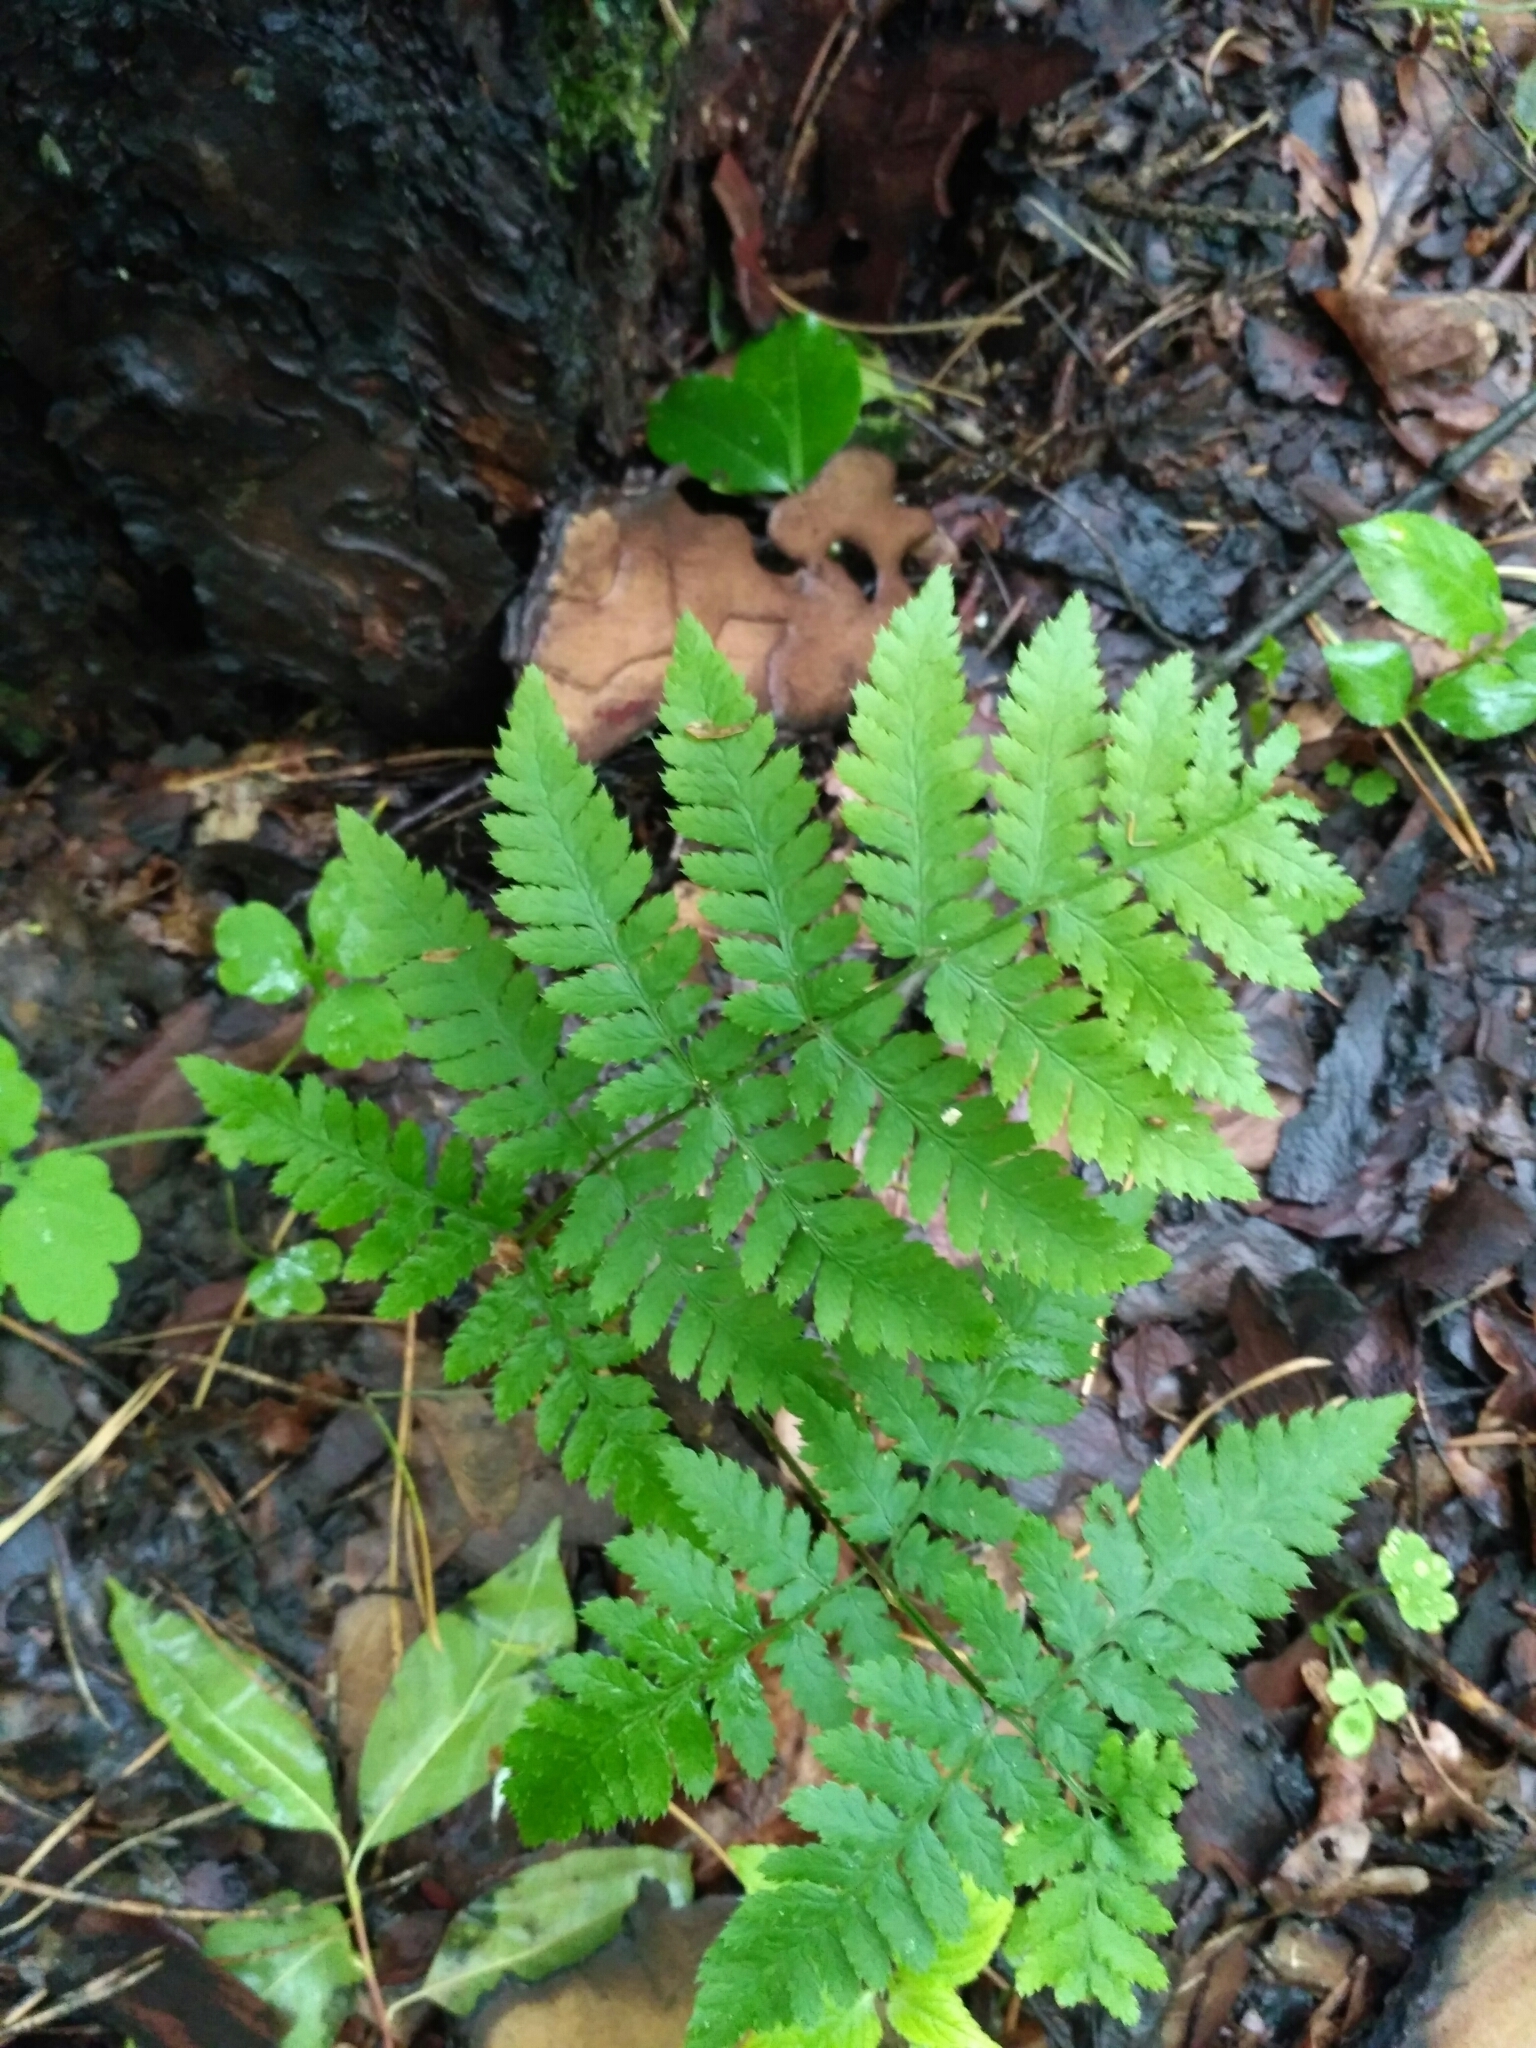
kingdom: Plantae
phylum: Tracheophyta
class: Polypodiopsida
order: Polypodiales
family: Dryopteridaceae
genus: Dryopteris
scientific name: Dryopteris carthusiana
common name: Narrow buckler-fern
